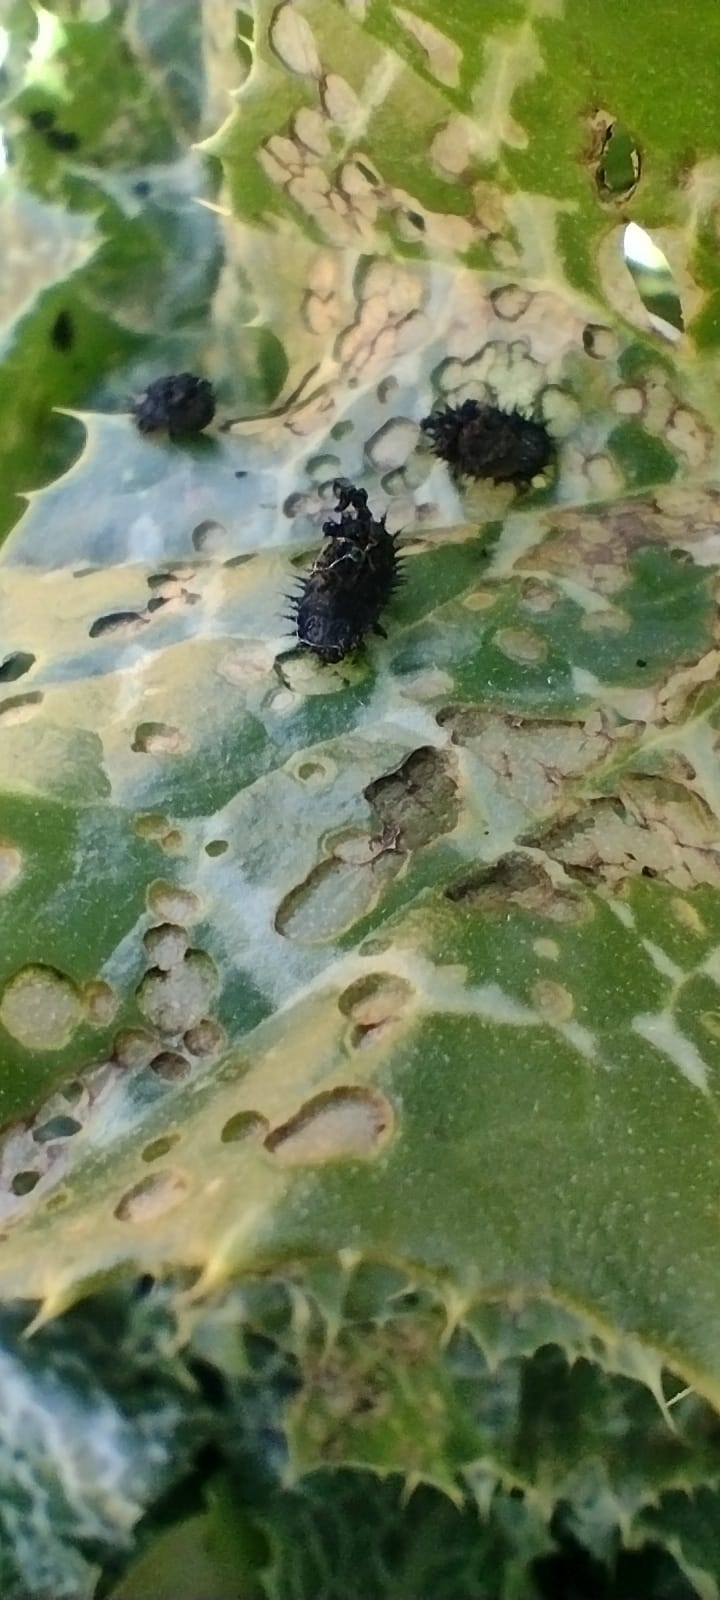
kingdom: Animalia
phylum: Arthropoda
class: Insecta
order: Coleoptera
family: Chrysomelidae
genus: Cassida
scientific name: Cassida deflorata
